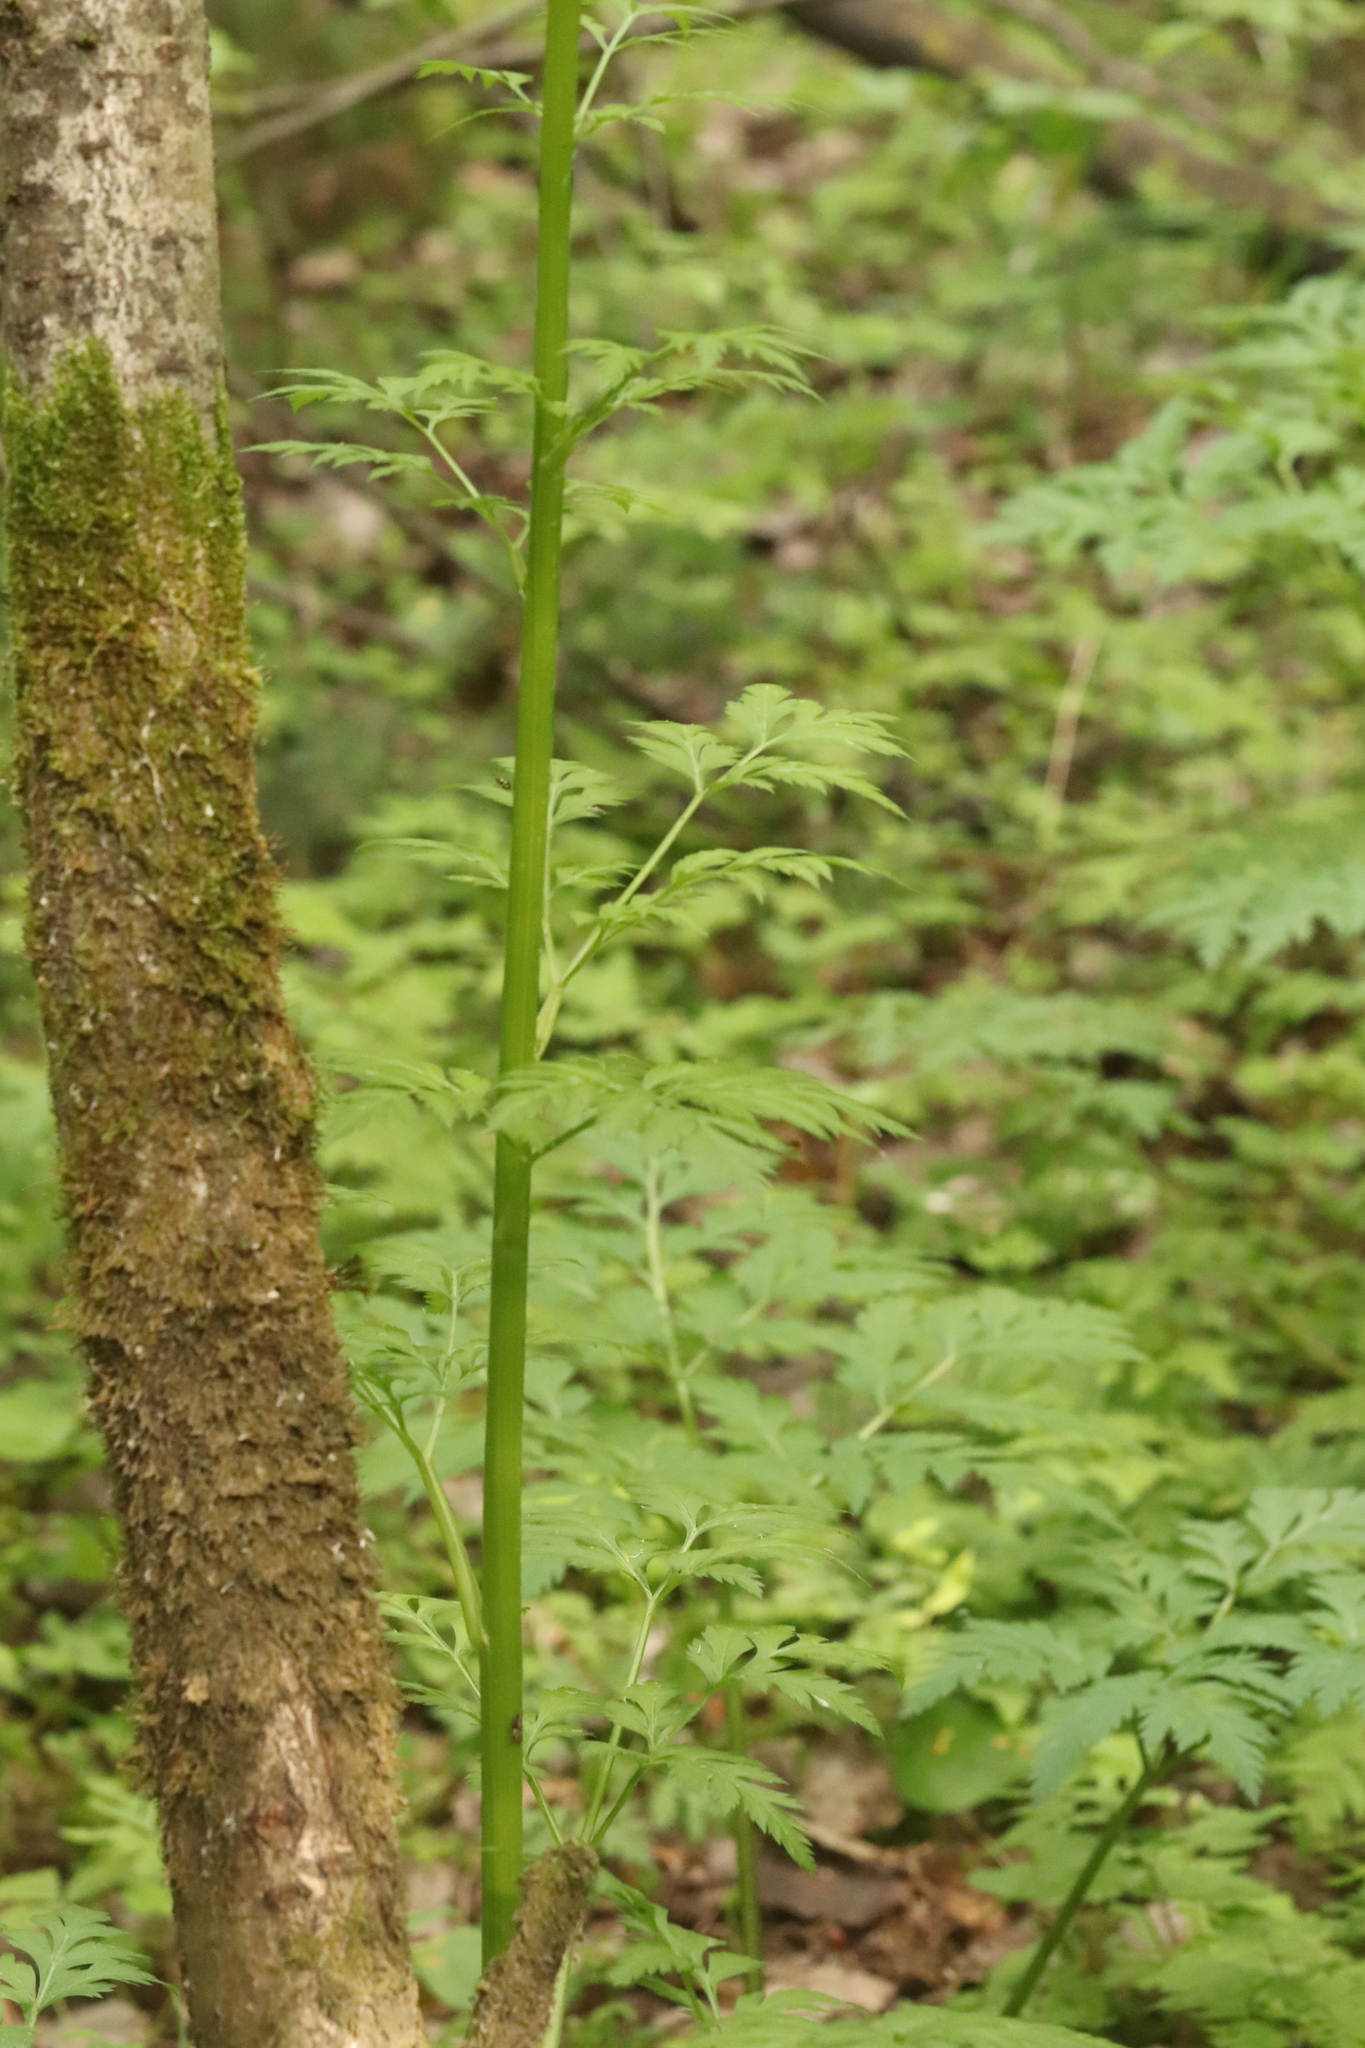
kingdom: Plantae
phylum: Tracheophyta
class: Magnoliopsida
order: Apiales
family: Apiaceae
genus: Pleurospermum
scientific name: Pleurospermum uralense
